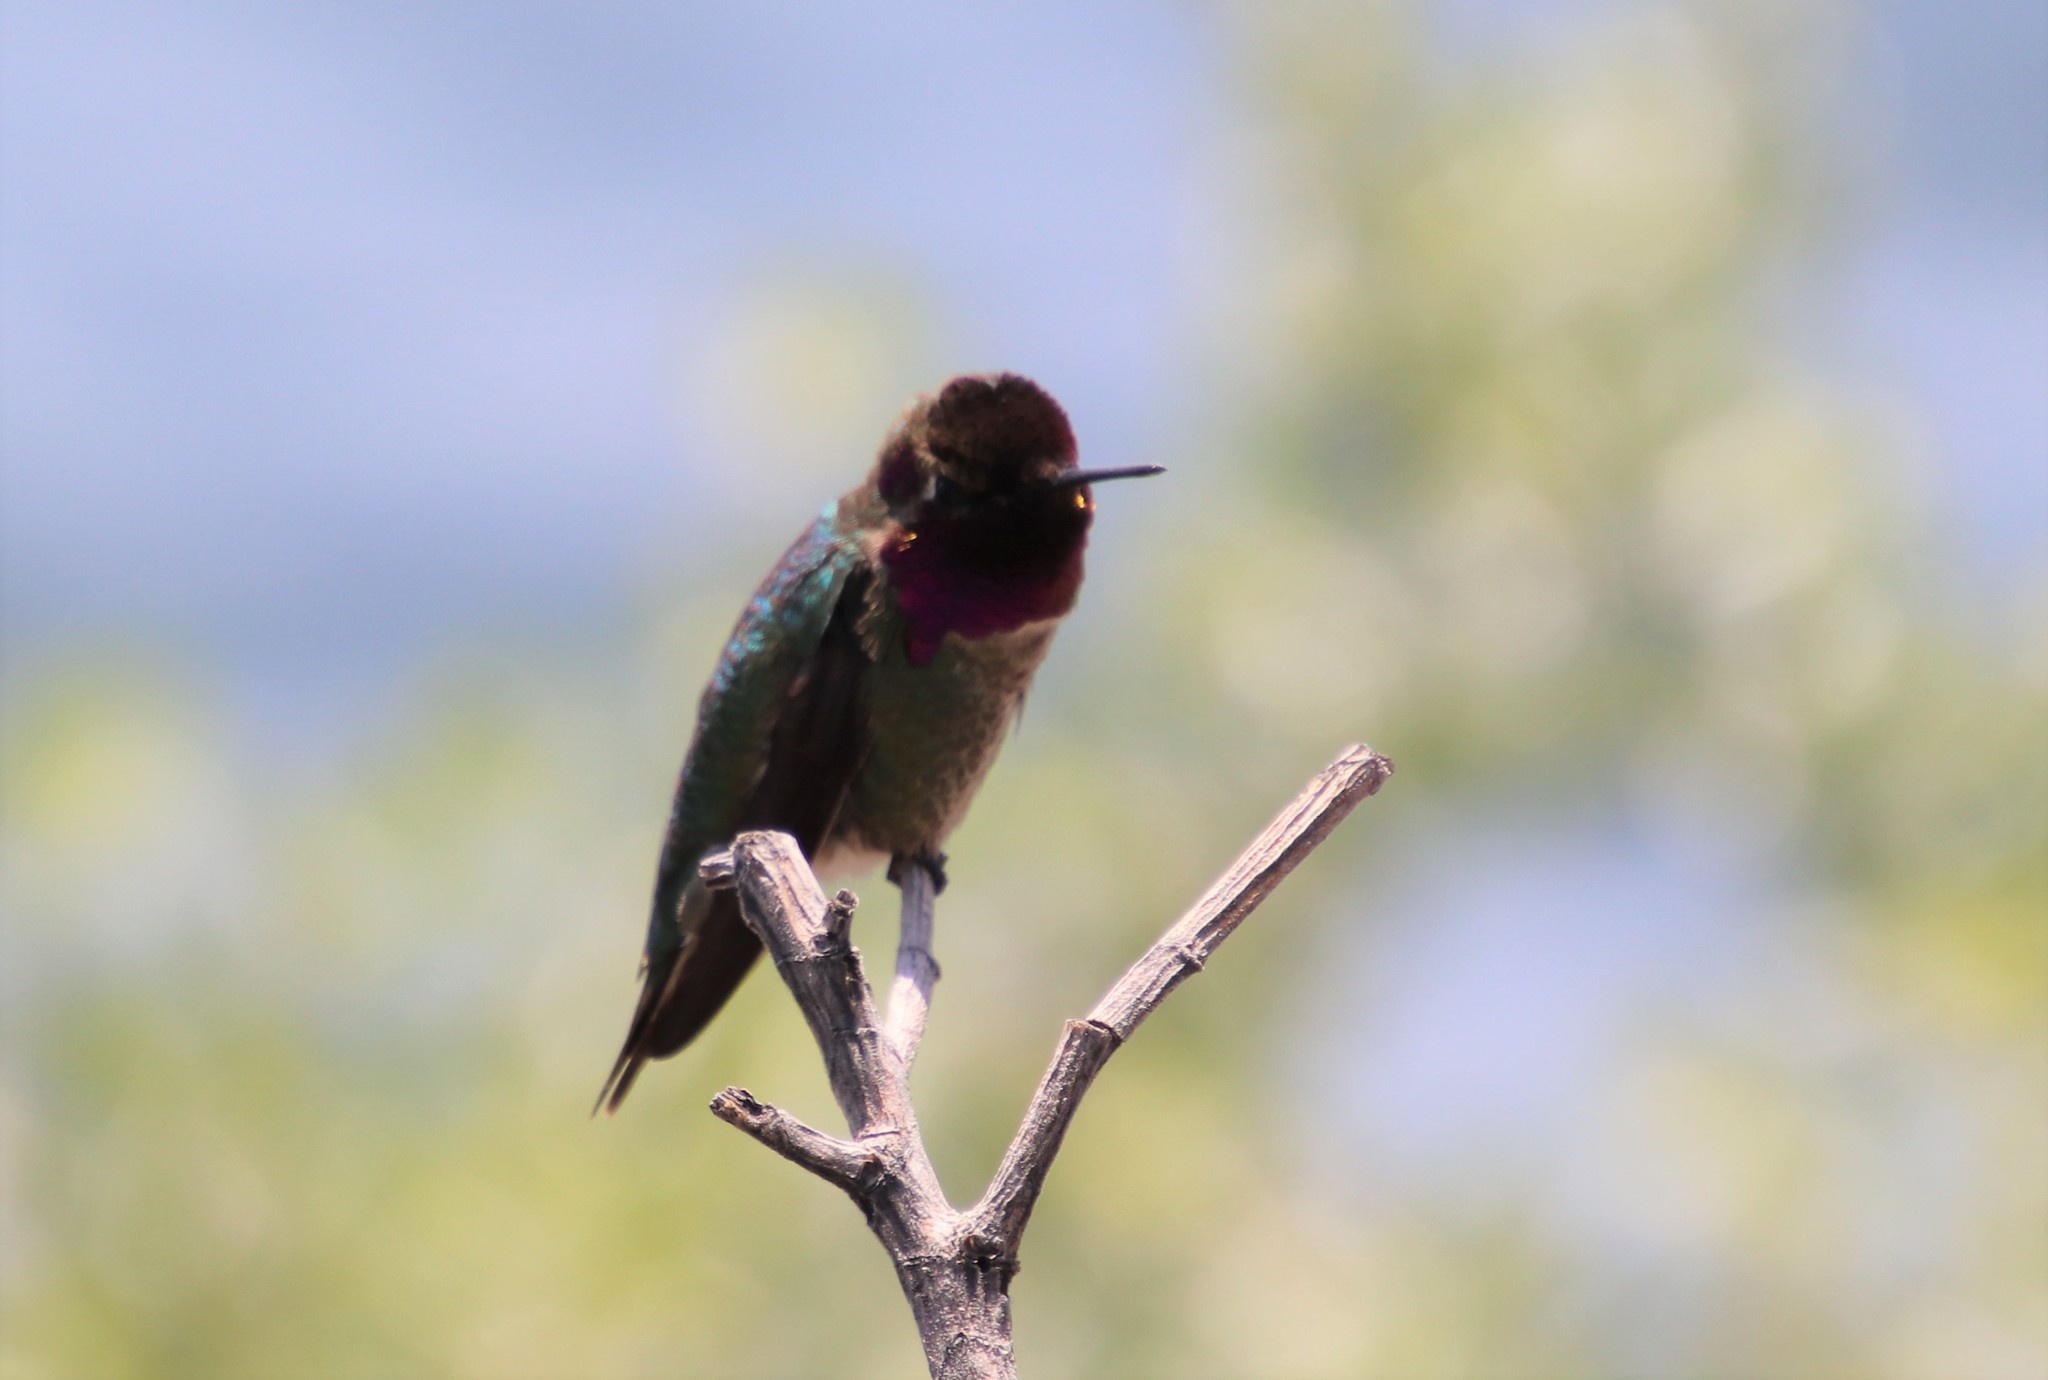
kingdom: Animalia
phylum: Chordata
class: Aves
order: Apodiformes
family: Trochilidae
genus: Calypte
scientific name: Calypte anna
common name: Anna's hummingbird
